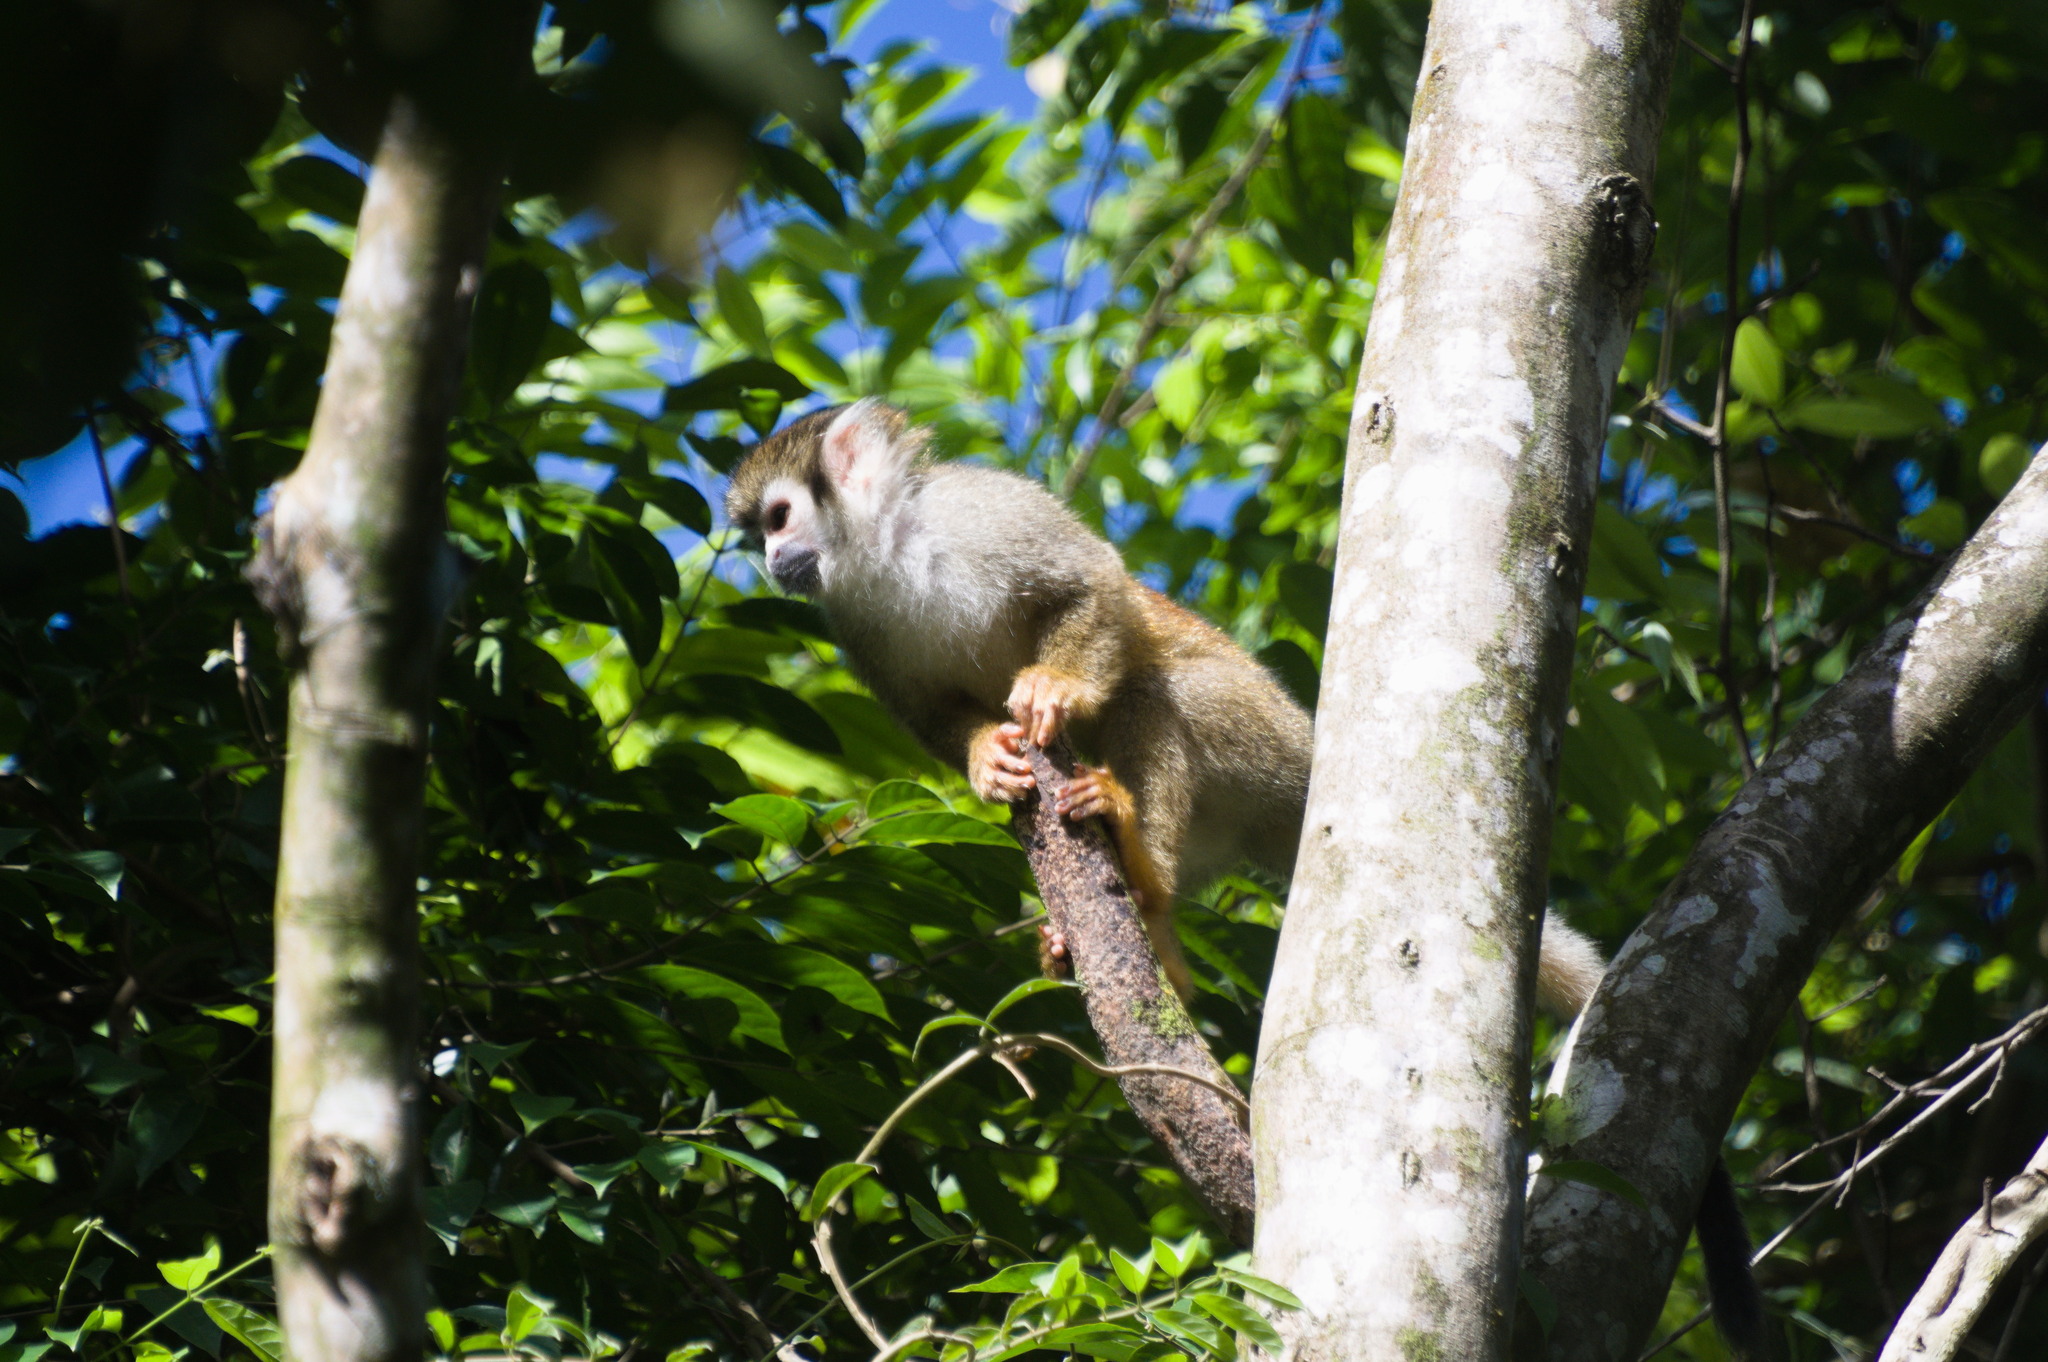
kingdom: Animalia
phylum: Chordata
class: Mammalia
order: Primates
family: Cebidae
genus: Saimiri
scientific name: Saimiri cassiquiarensis
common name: Humboldt’s squirrel monkey
